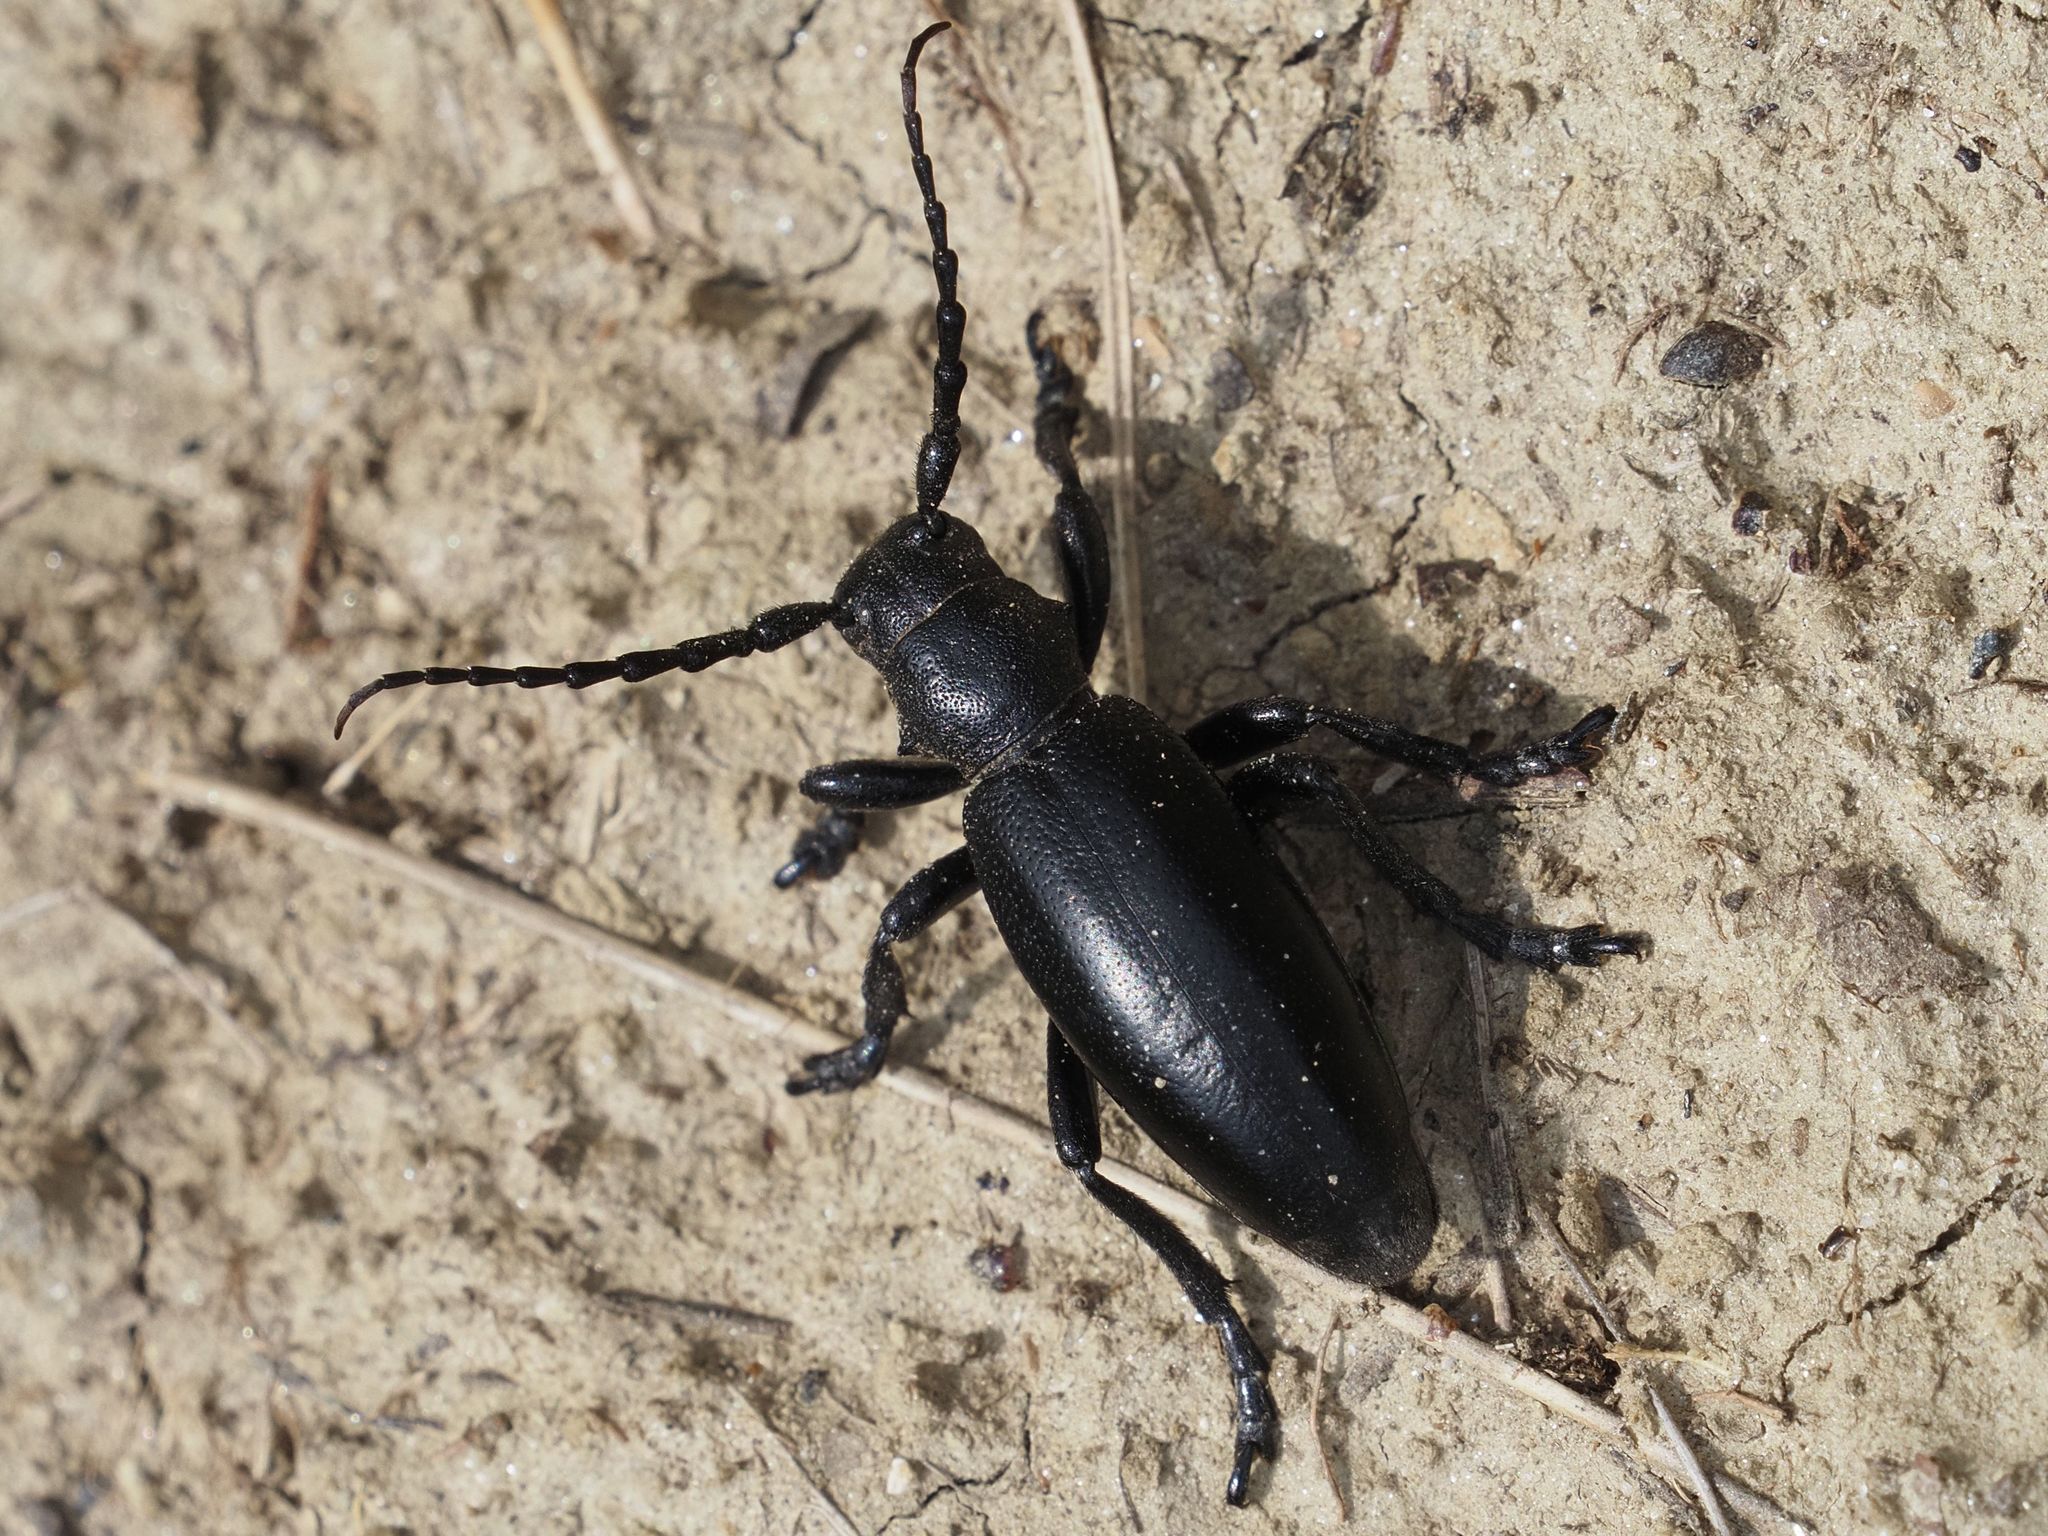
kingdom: Animalia
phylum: Arthropoda
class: Insecta
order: Coleoptera
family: Cerambycidae
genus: Dorcadion
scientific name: Dorcadion aethiops
